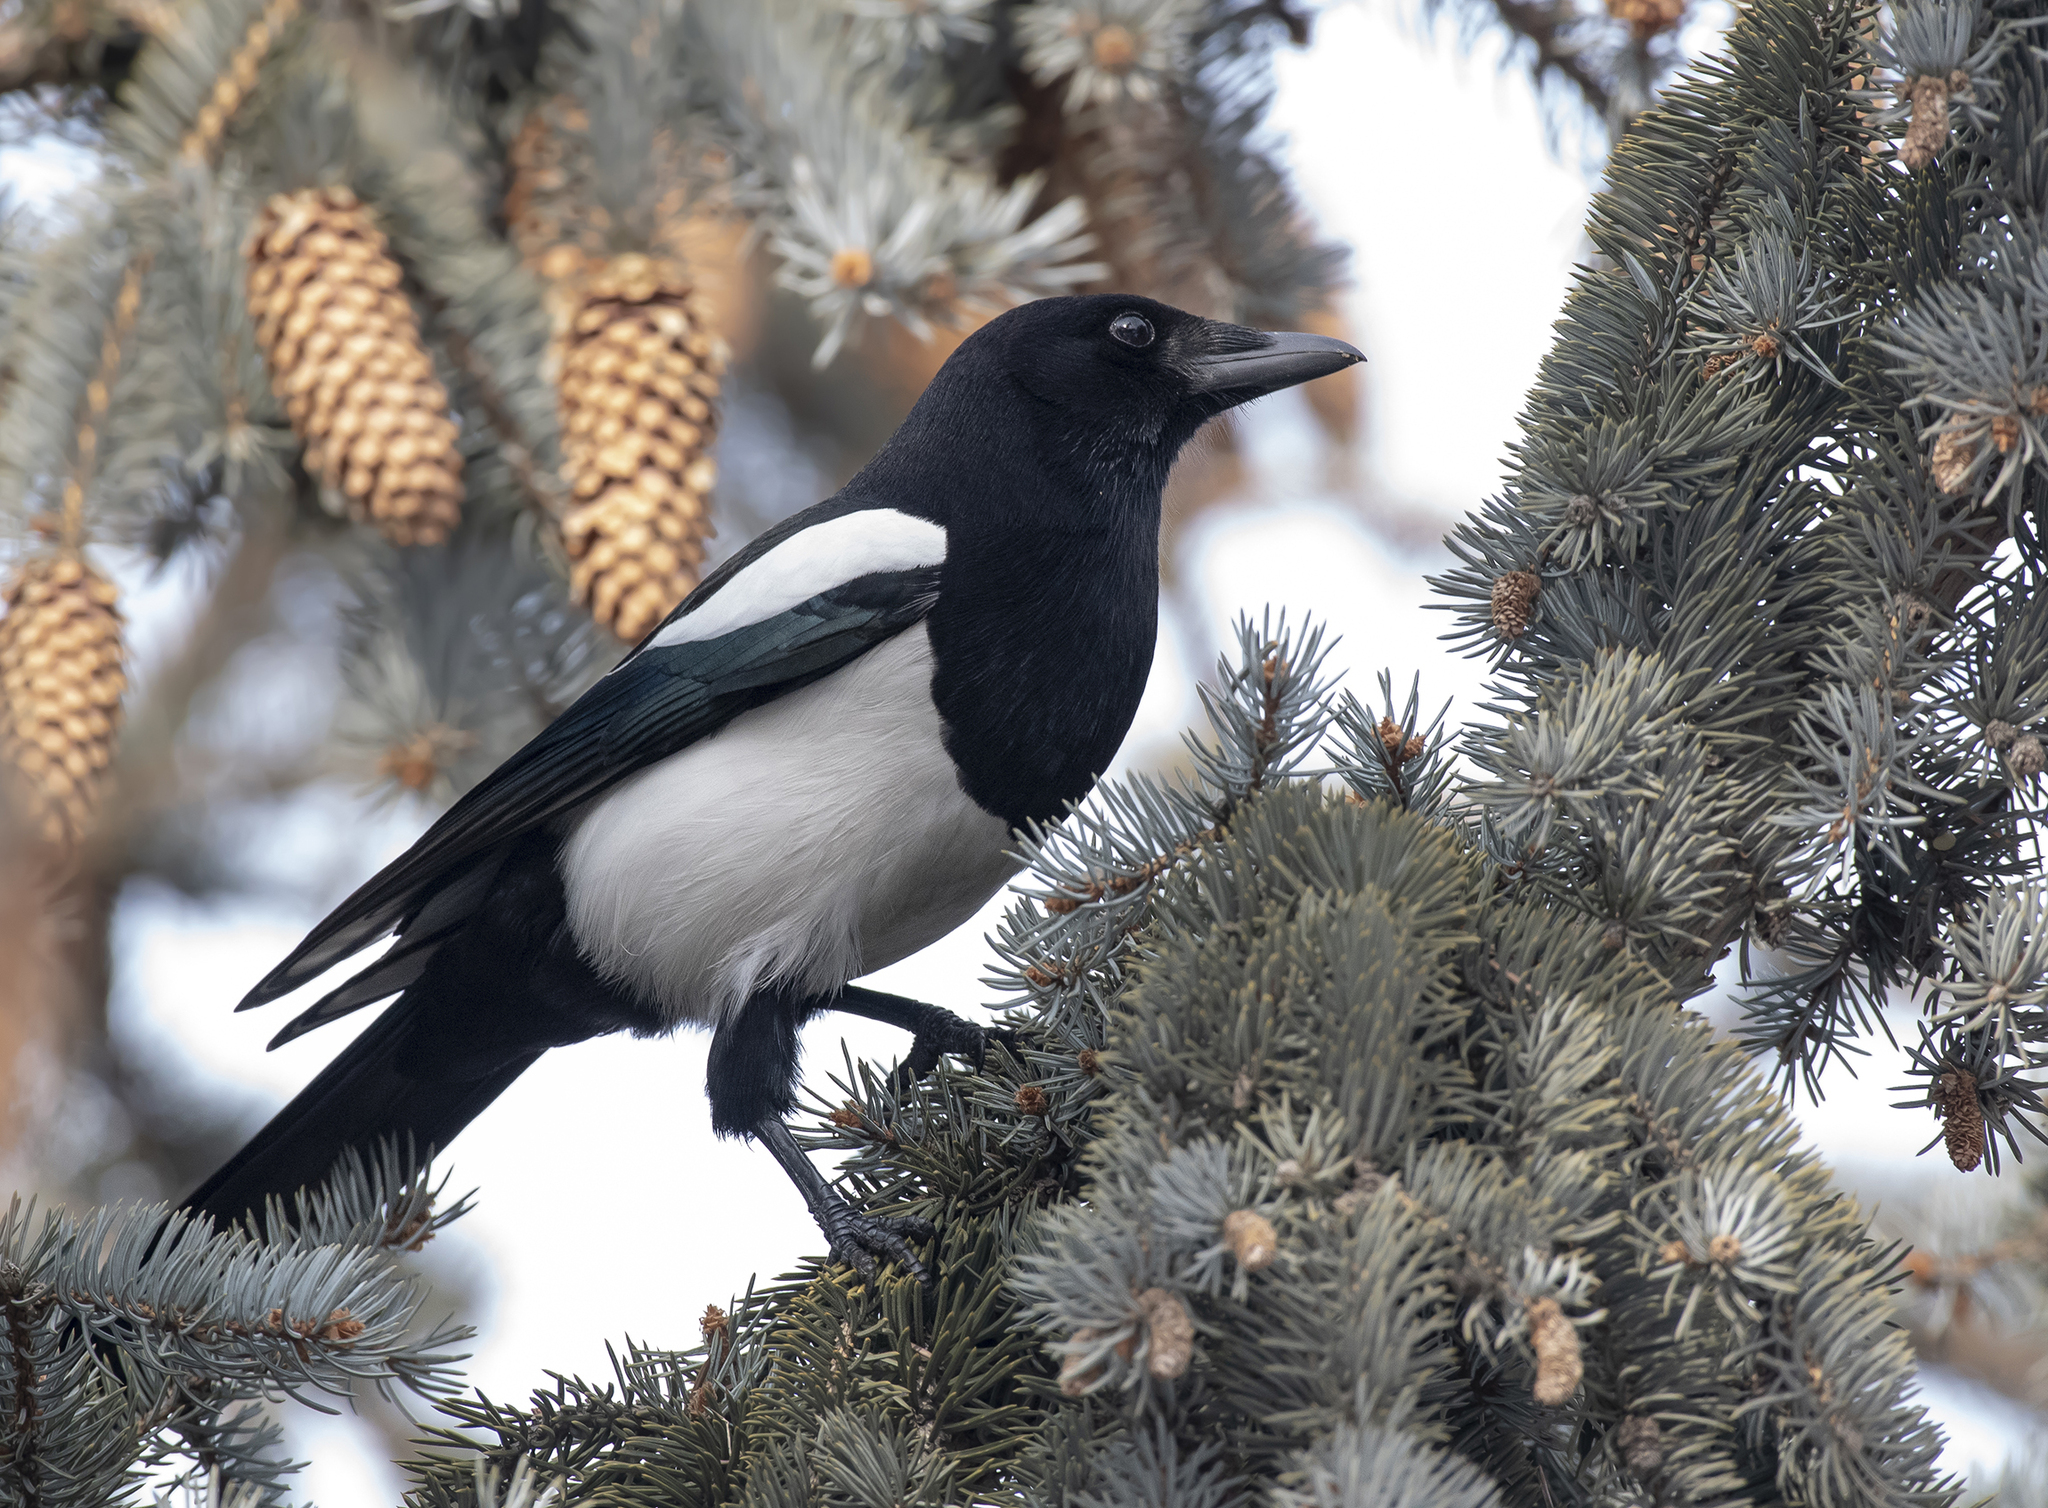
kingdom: Animalia
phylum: Chordata
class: Aves
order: Passeriformes
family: Corvidae
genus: Pica
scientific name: Pica pica
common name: Eurasian magpie
